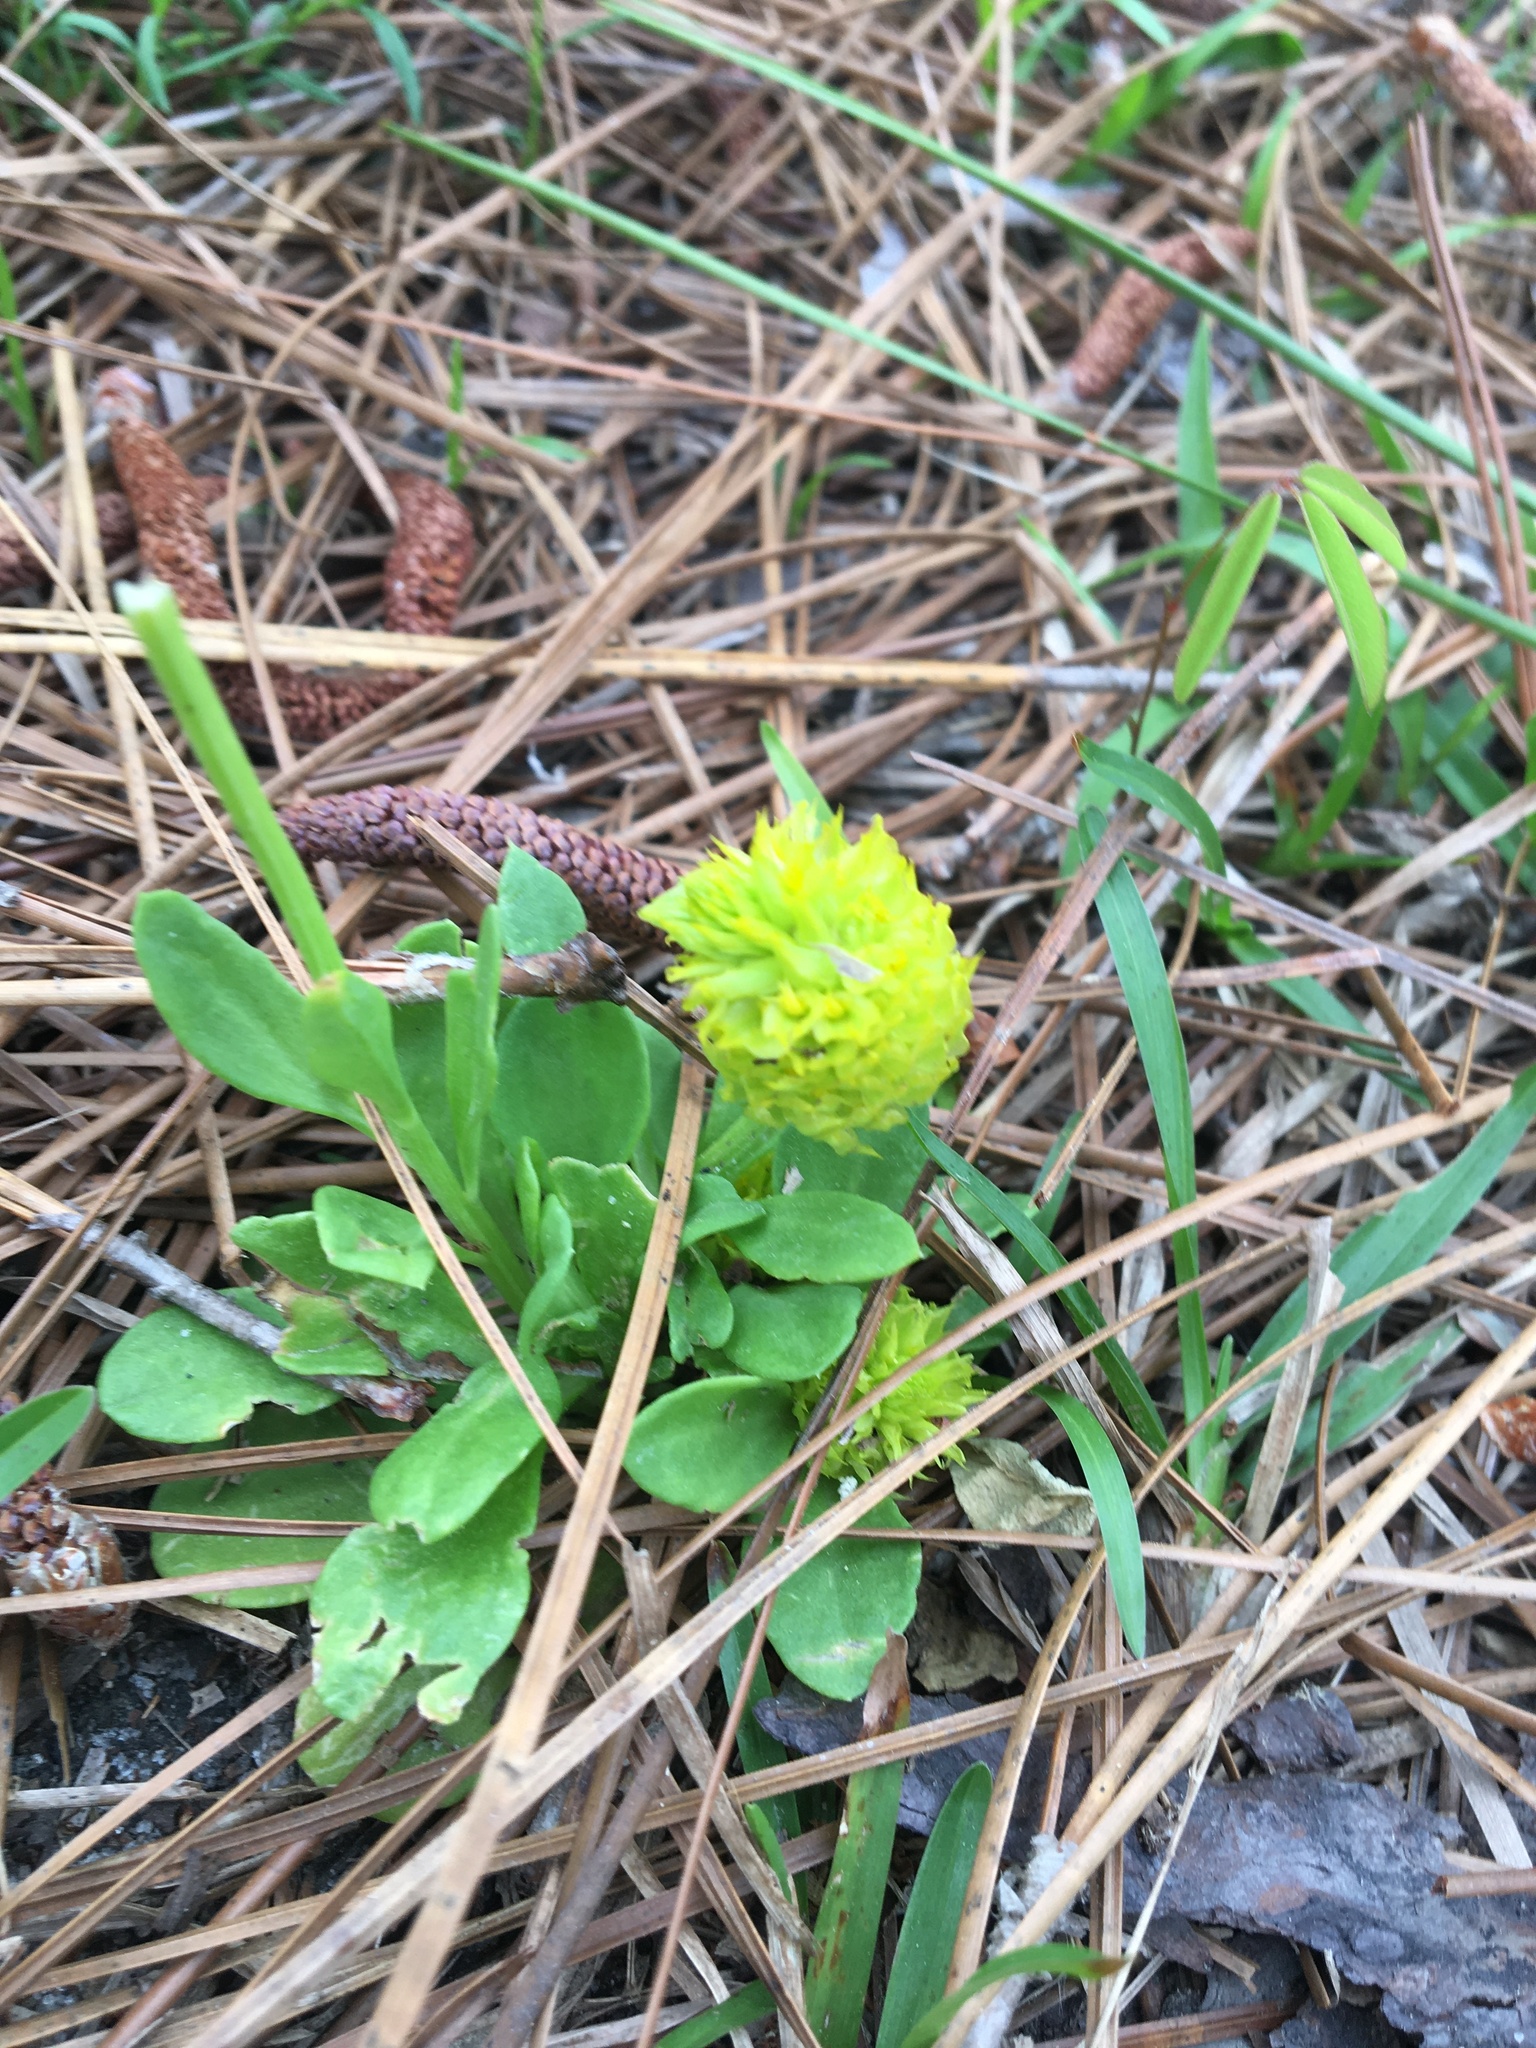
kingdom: Plantae
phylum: Tracheophyta
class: Magnoliopsida
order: Fabales
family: Polygalaceae
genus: Polygala
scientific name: Polygala nana
